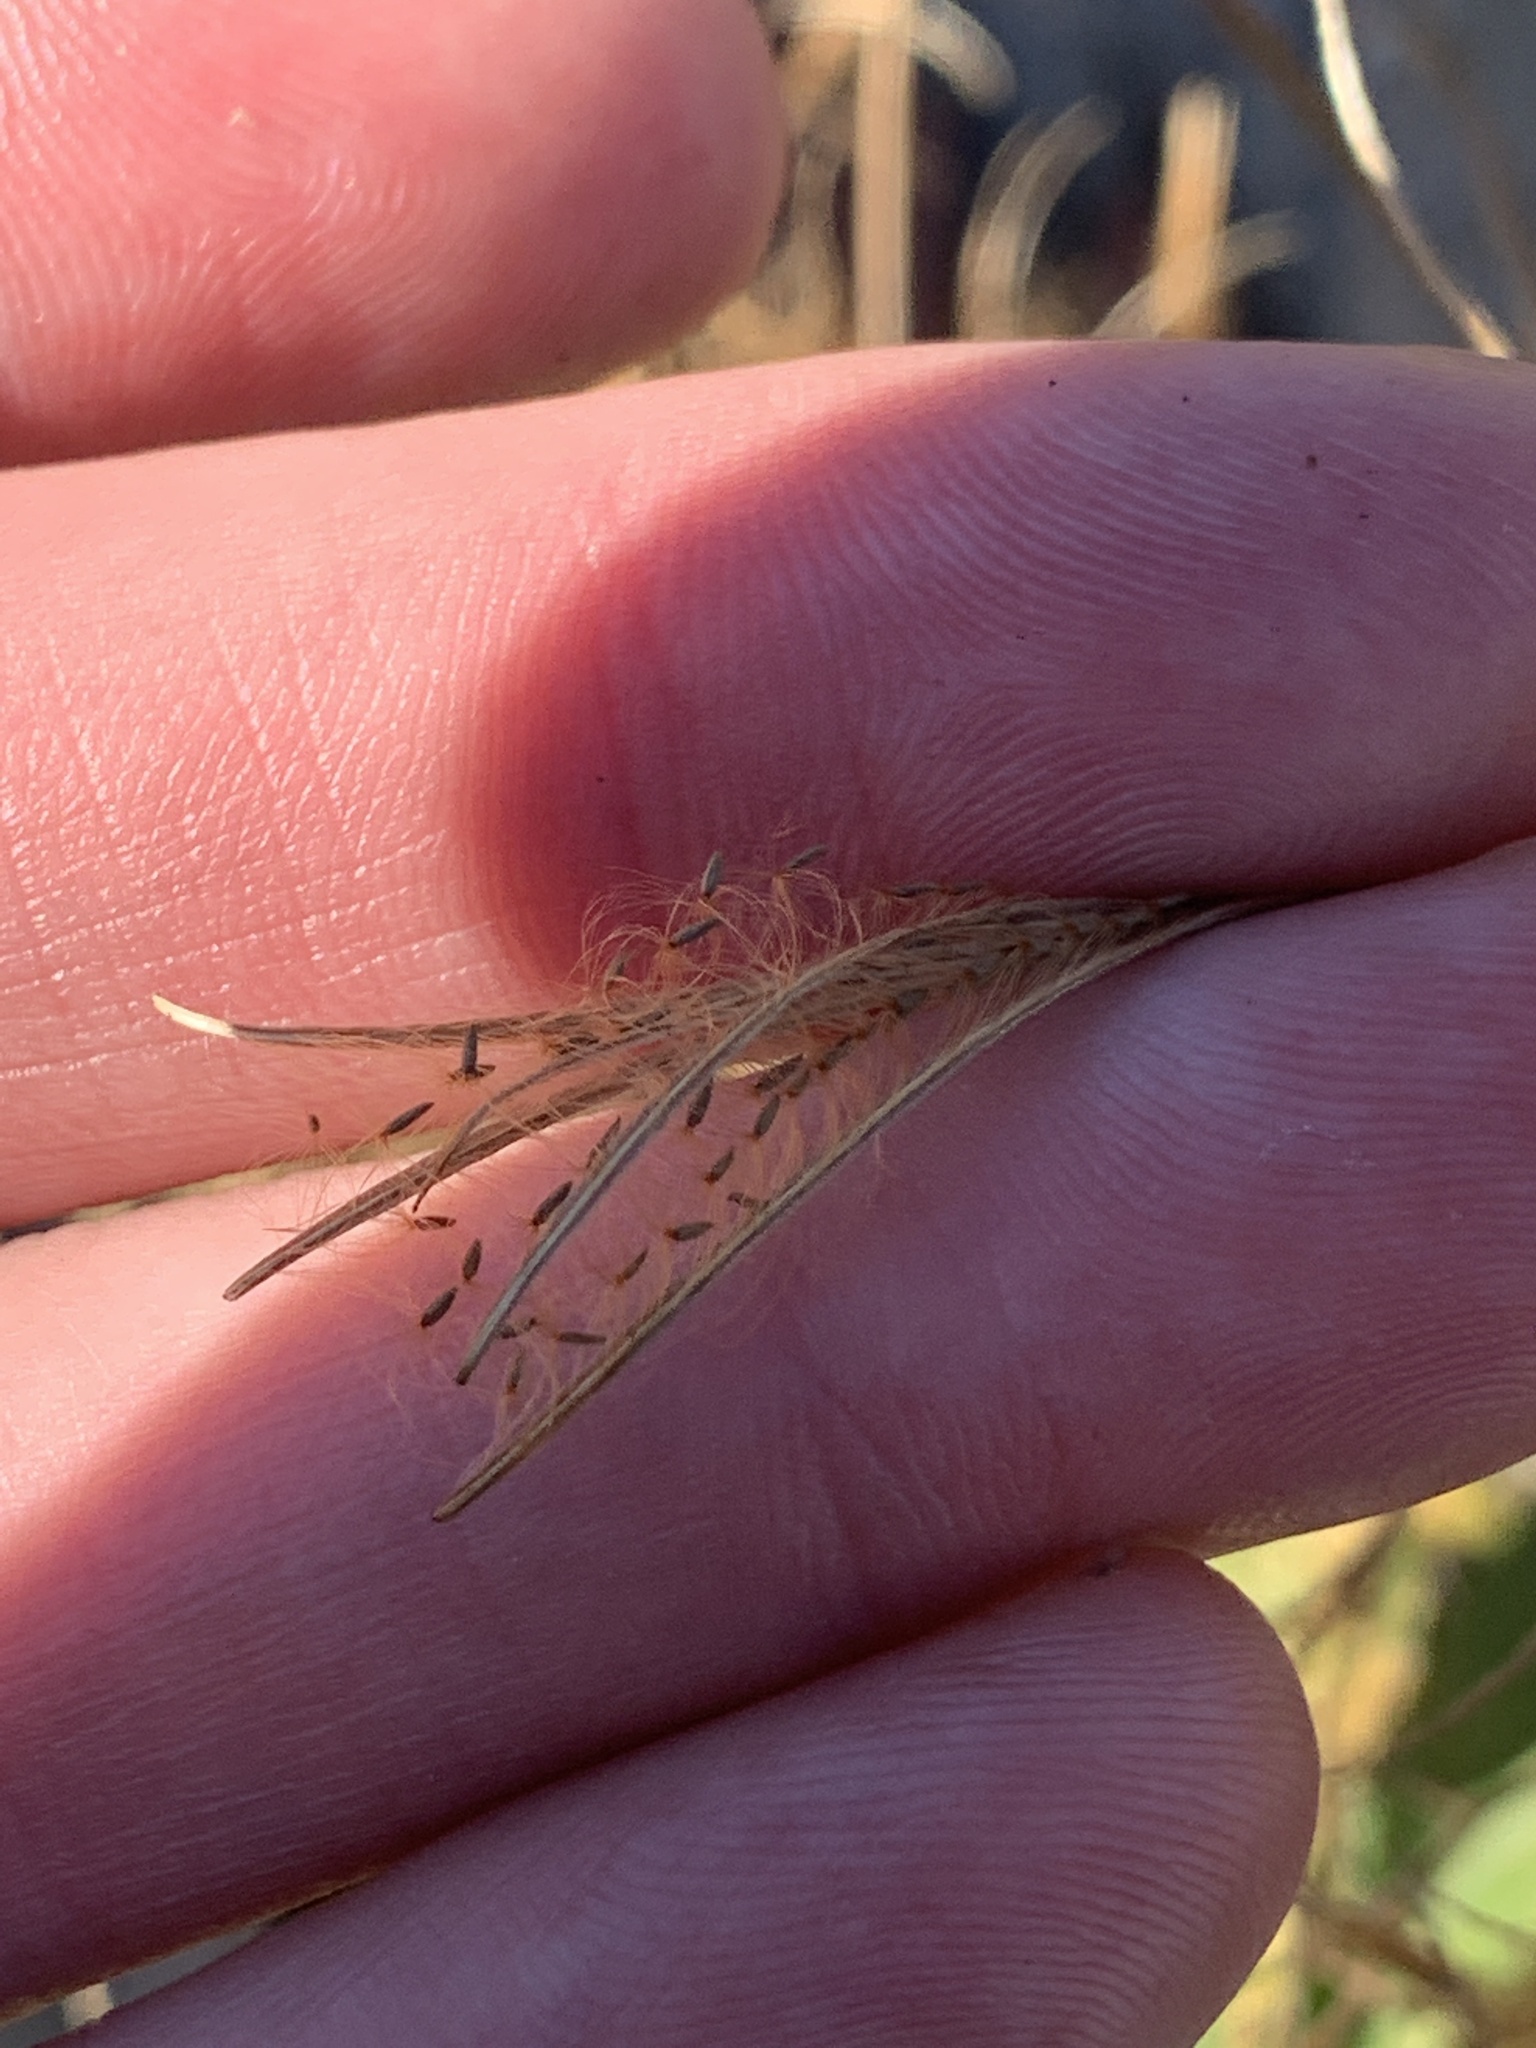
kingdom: Plantae
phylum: Tracheophyta
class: Magnoliopsida
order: Myrtales
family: Onagraceae
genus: Epilobium
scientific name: Epilobium coloratum
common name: Bronze willowherb
